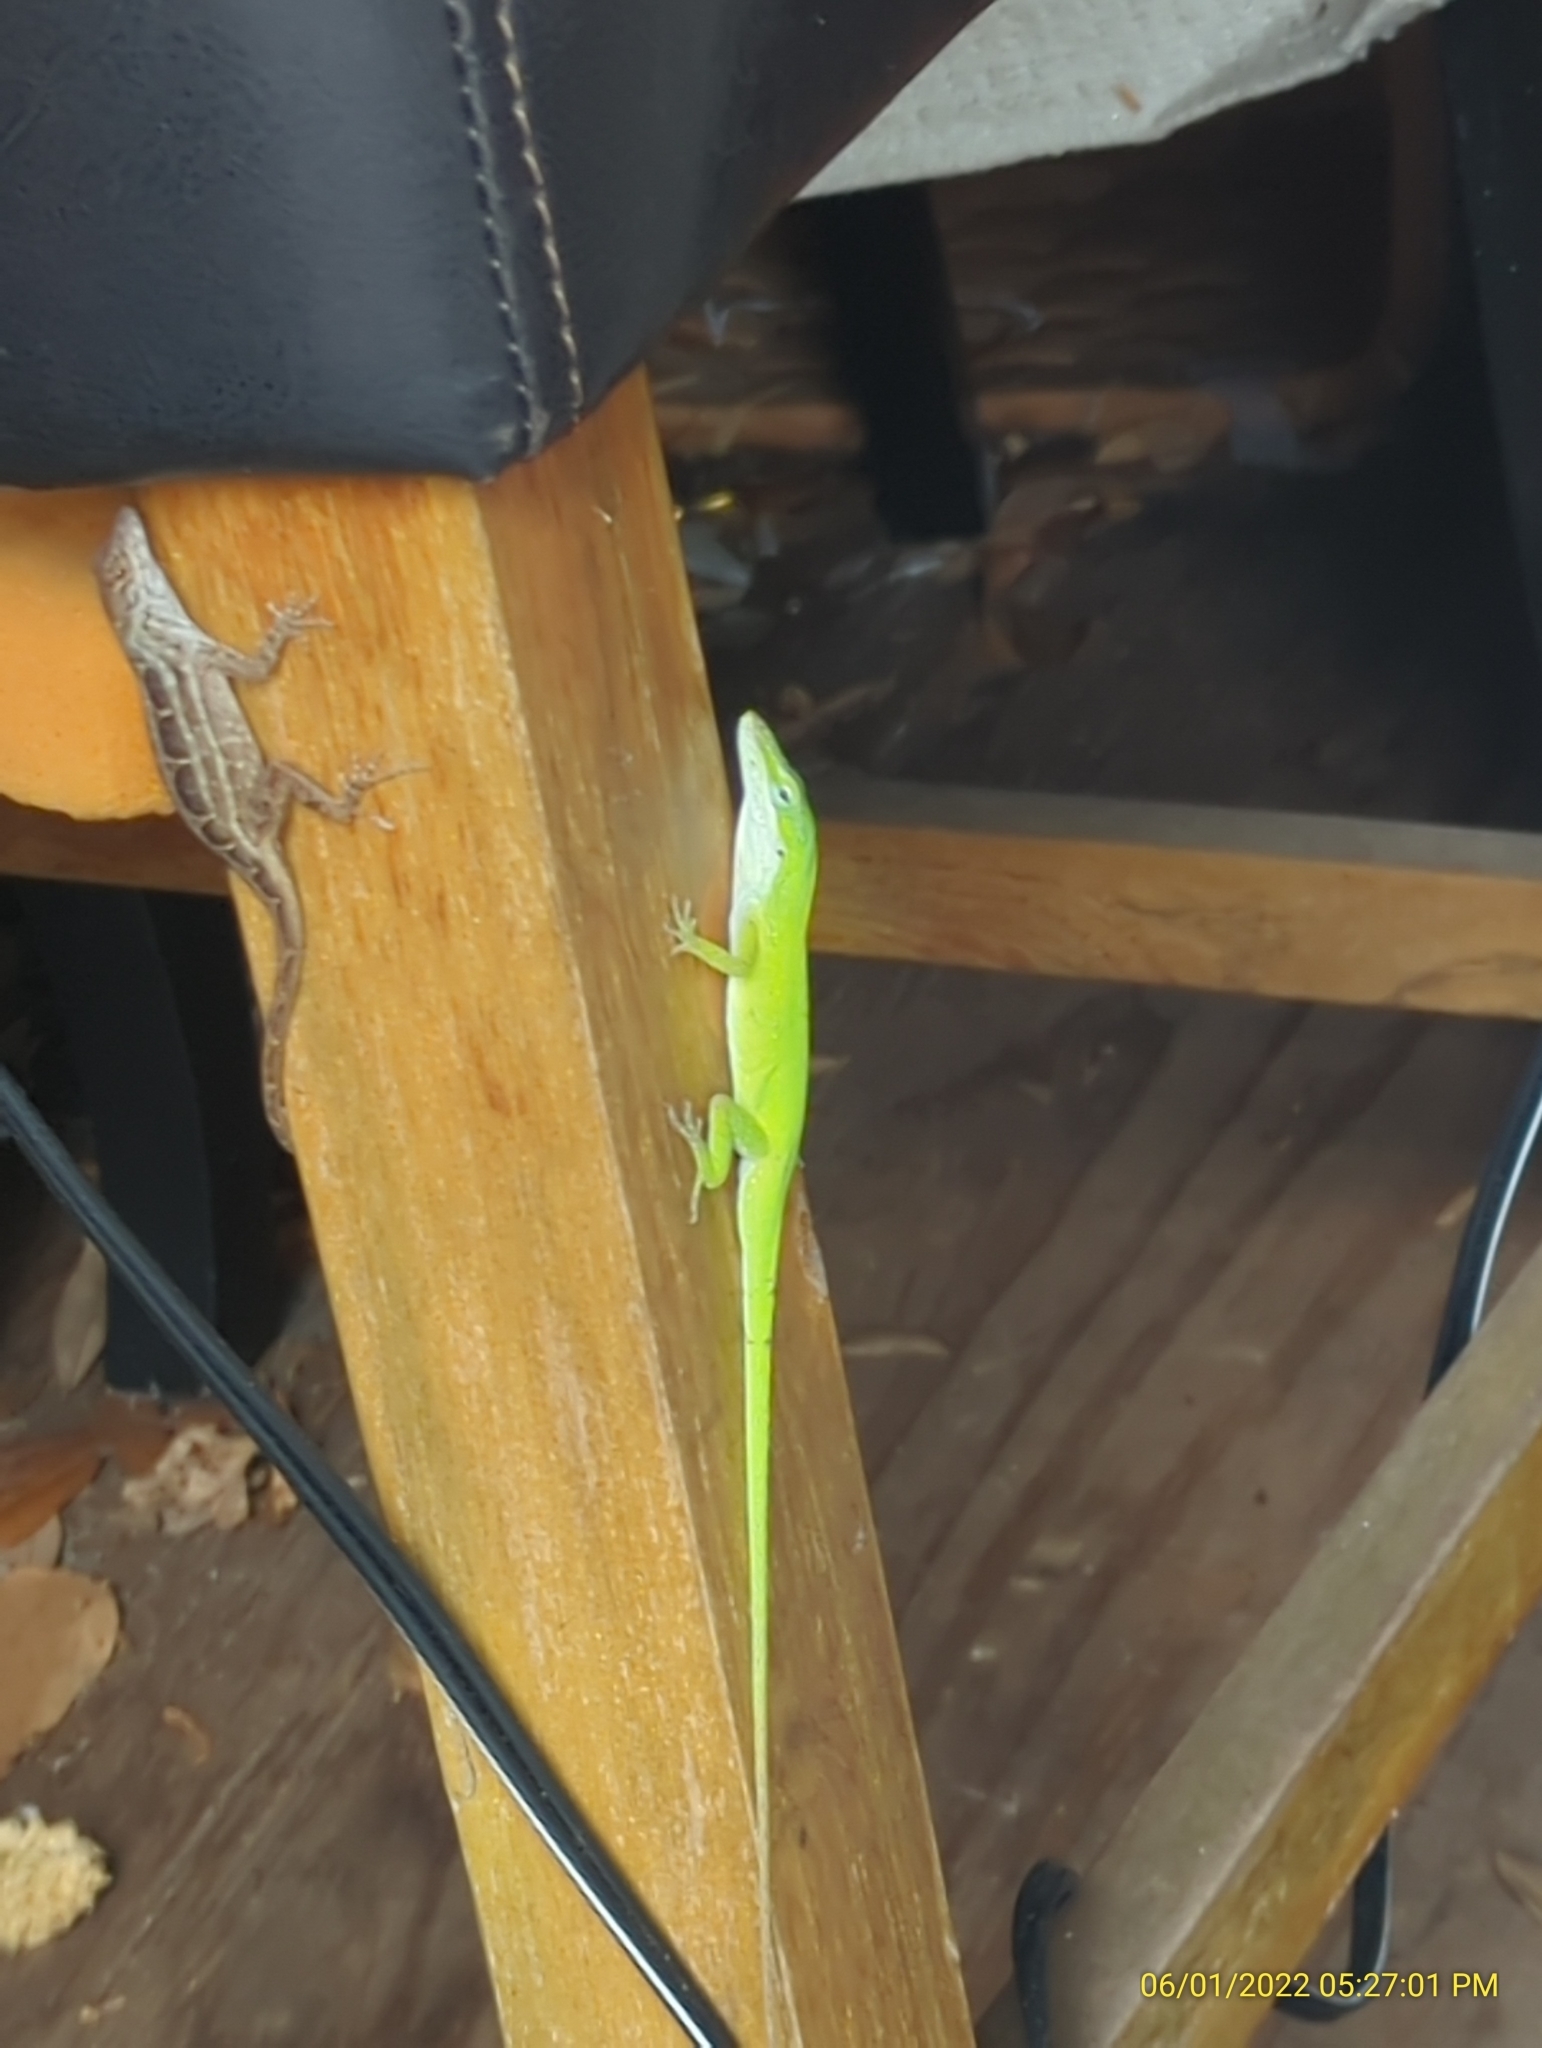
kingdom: Animalia
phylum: Chordata
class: Squamata
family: Dactyloidae
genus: Anolis
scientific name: Anolis carolinensis
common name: Green anole
